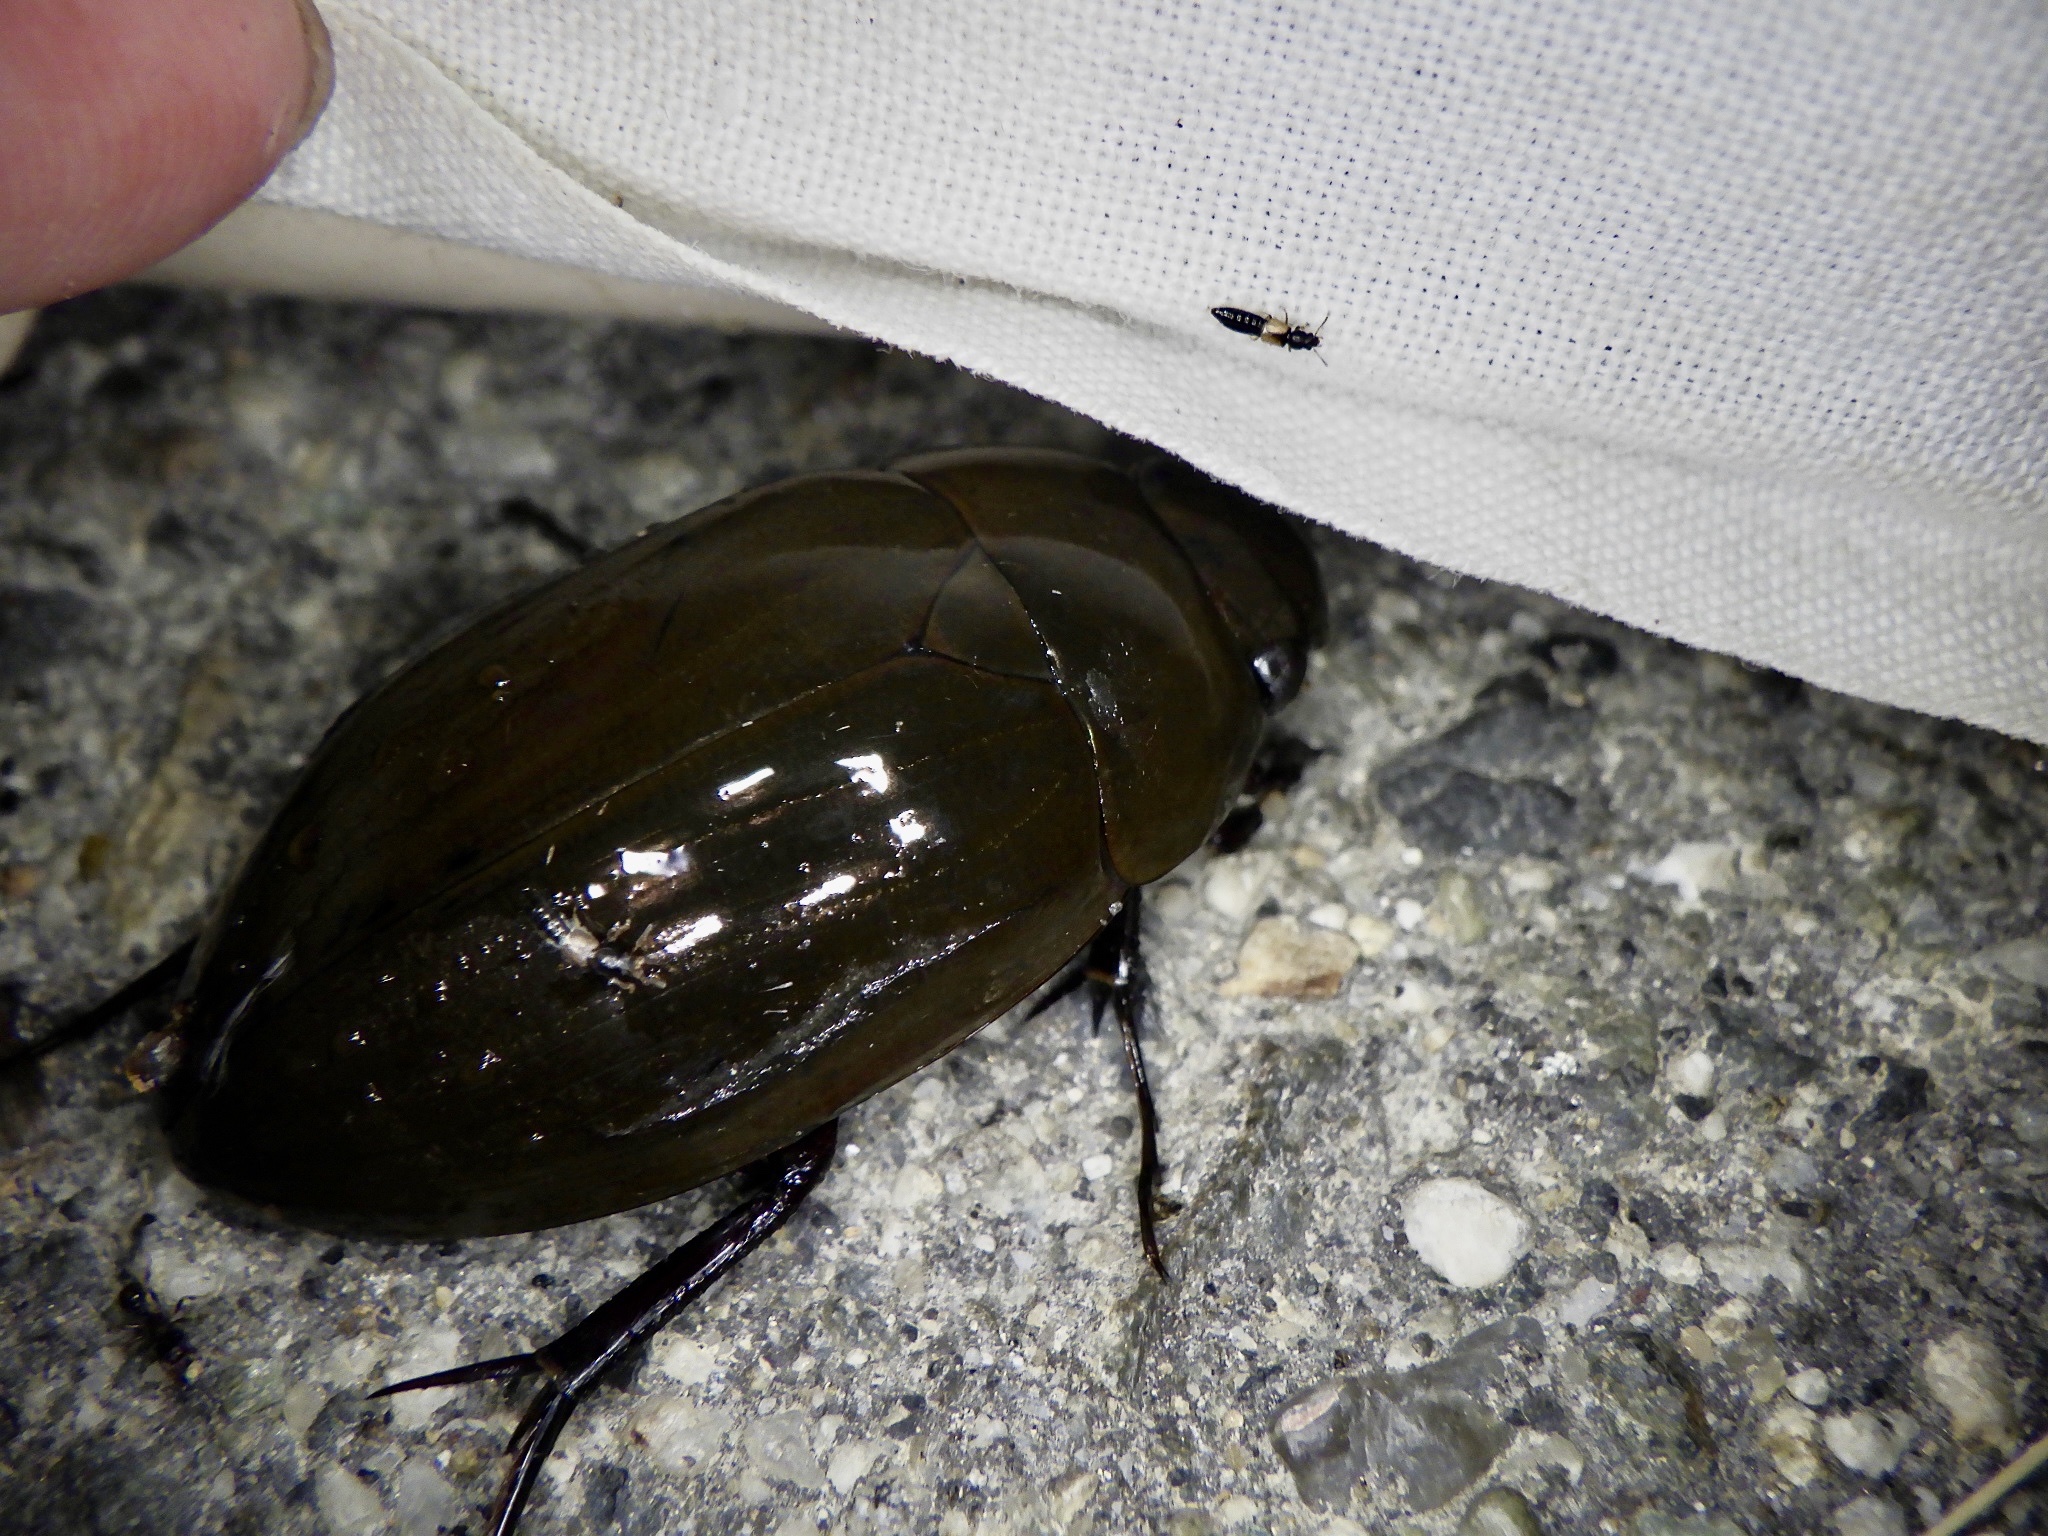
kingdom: Animalia
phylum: Arthropoda
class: Insecta
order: Coleoptera
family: Hydrophilidae
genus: Hydrophilus
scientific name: Hydrophilus acuminatus
